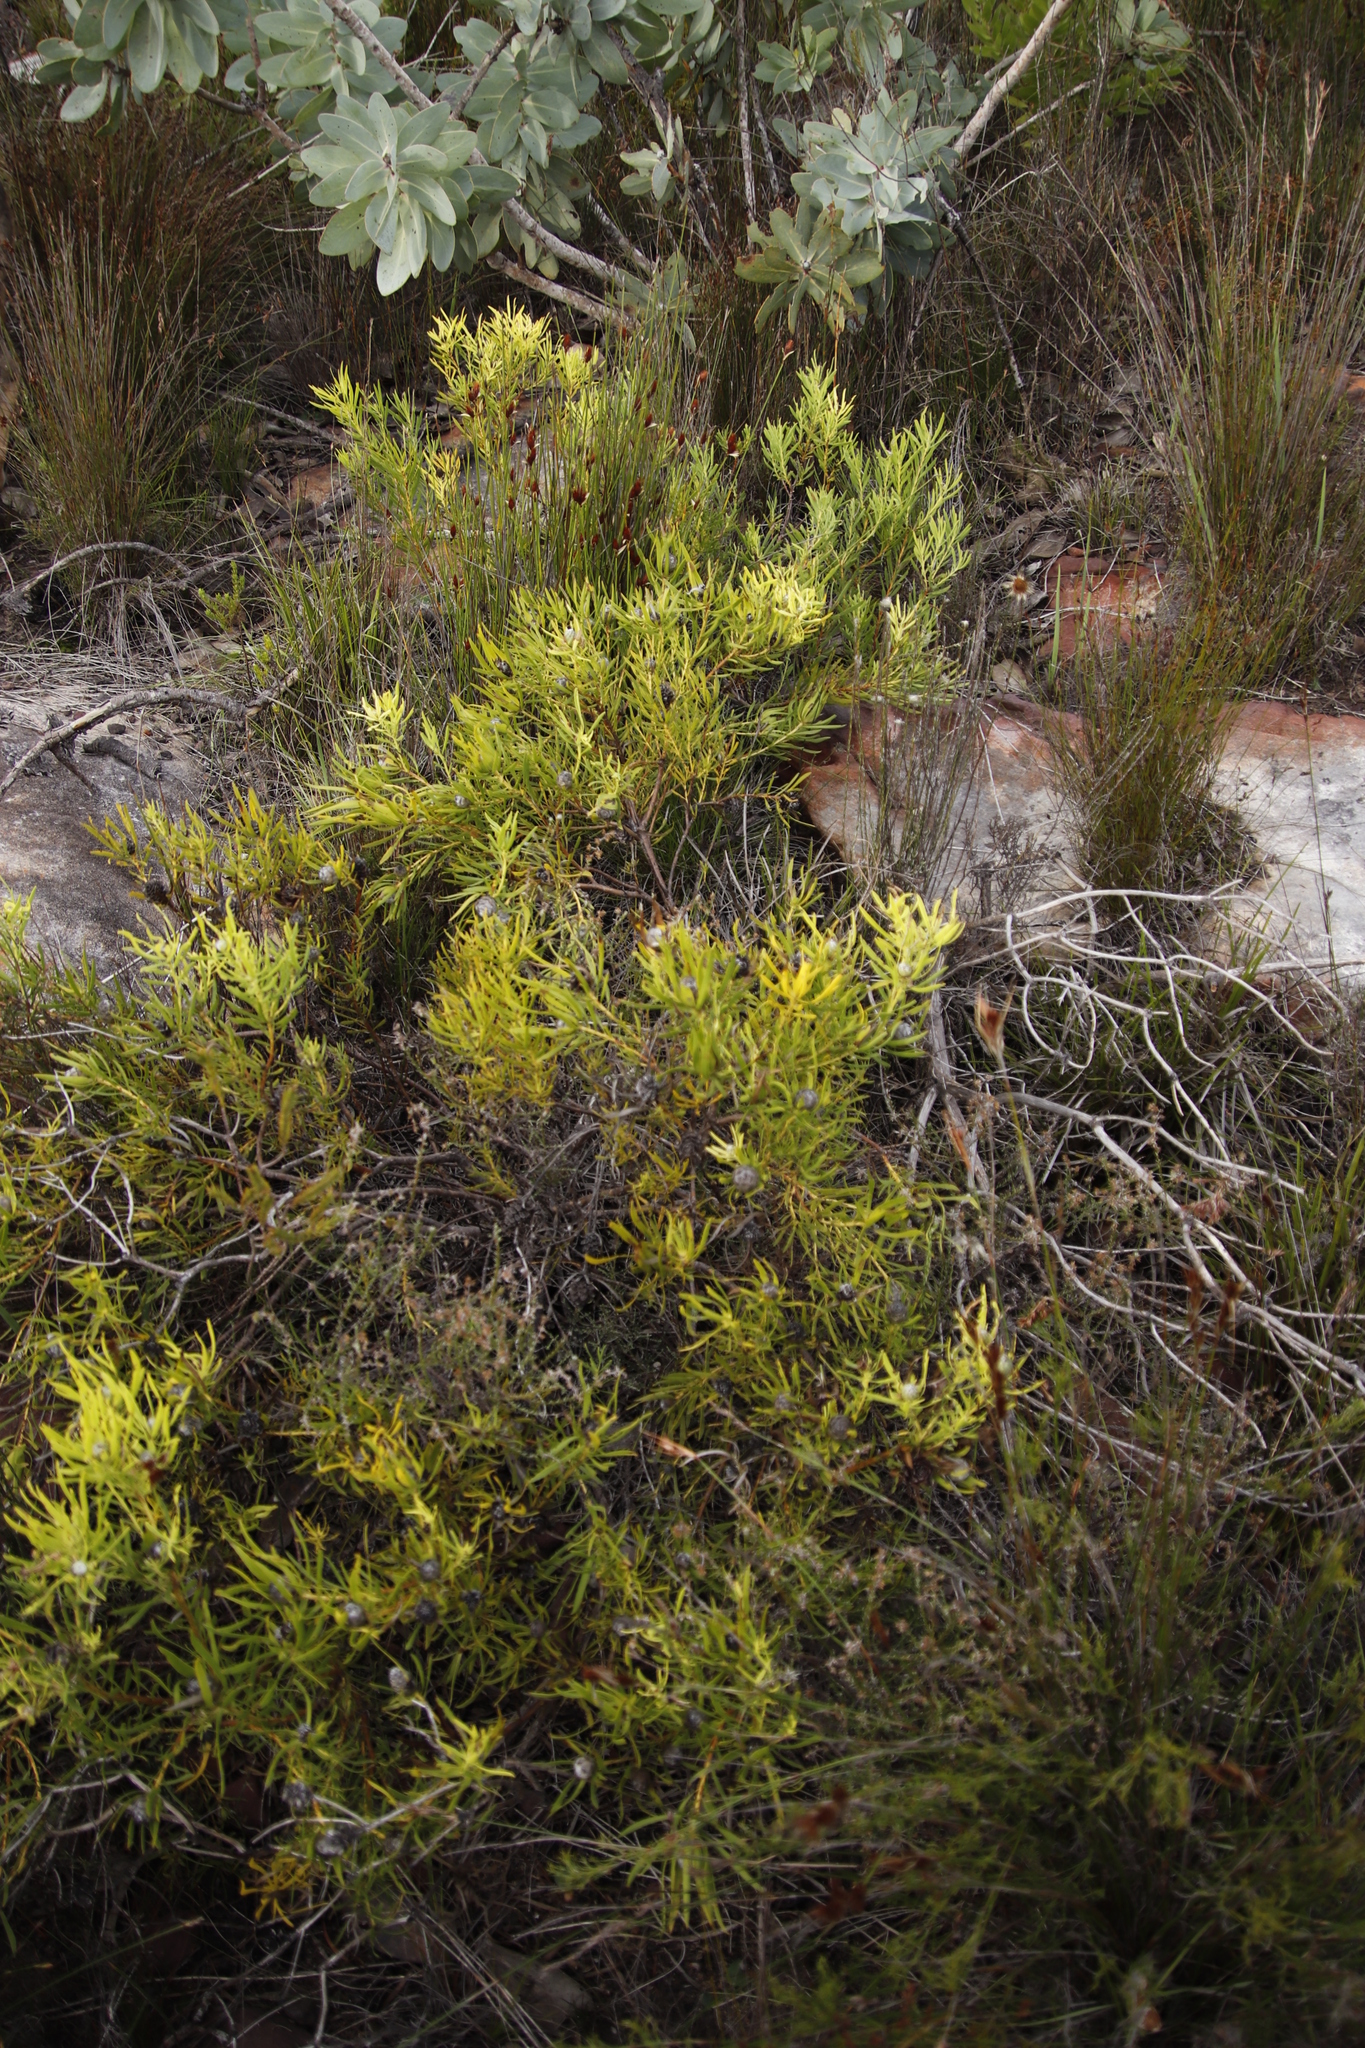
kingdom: Plantae
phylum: Tracheophyta
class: Magnoliopsida
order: Proteales
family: Proteaceae
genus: Leucadendron
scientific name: Leucadendron salignum
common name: Common sunshine conebush
